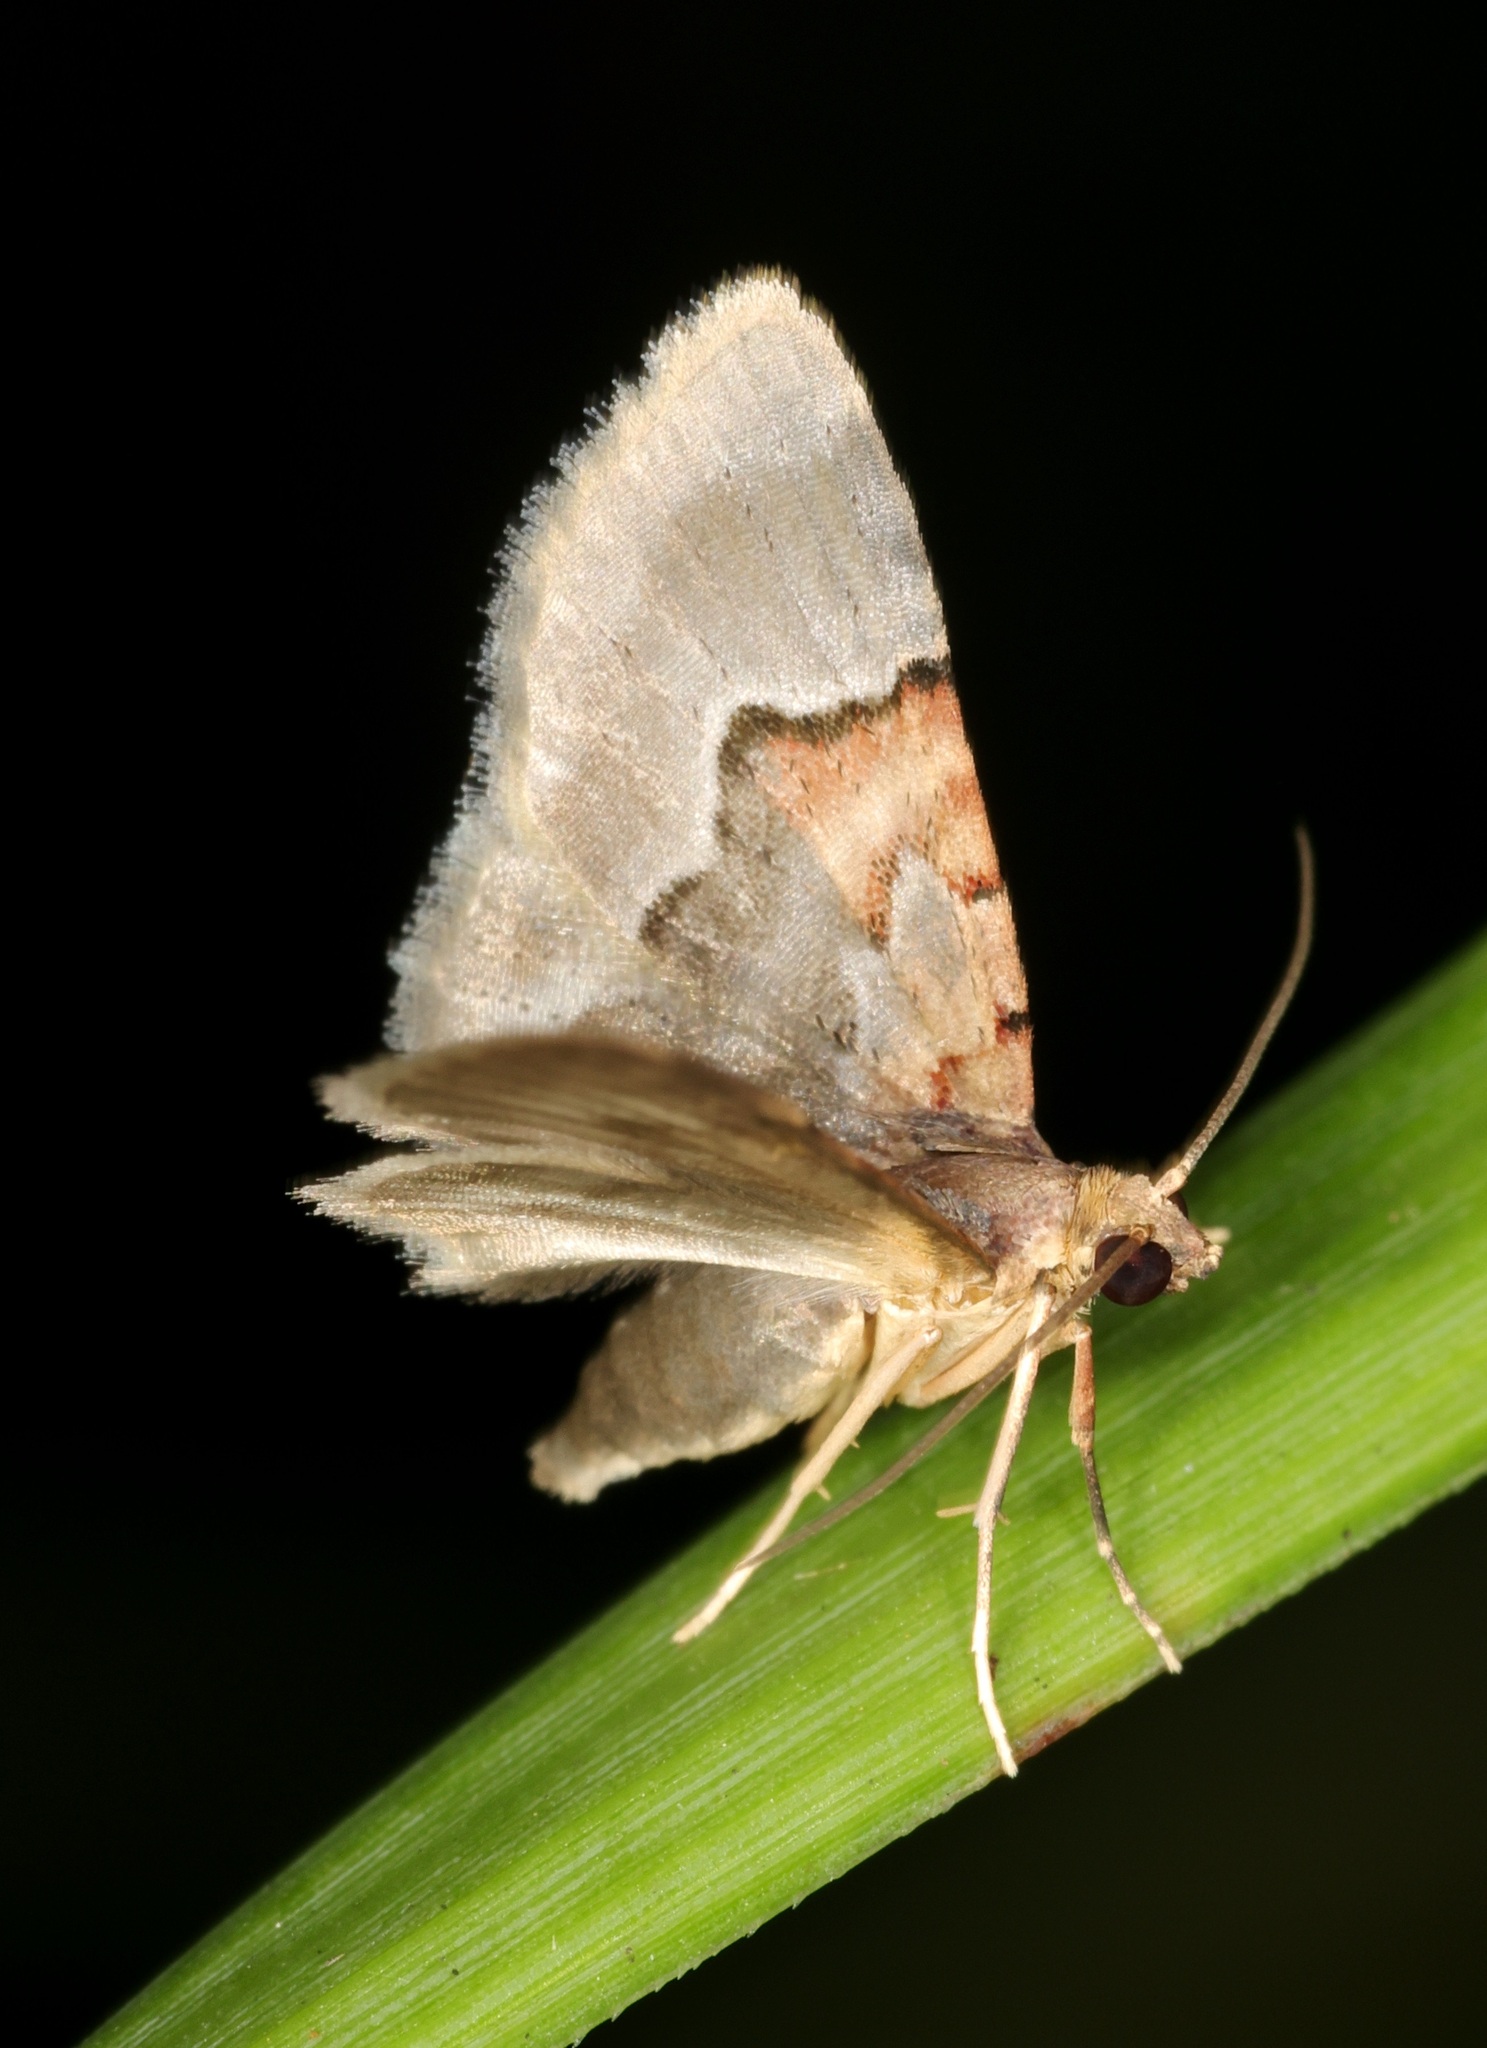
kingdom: Animalia
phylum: Arthropoda
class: Insecta
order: Lepidoptera
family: Geometridae
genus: Glaucoclystis
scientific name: Glaucoclystis griseorufa
